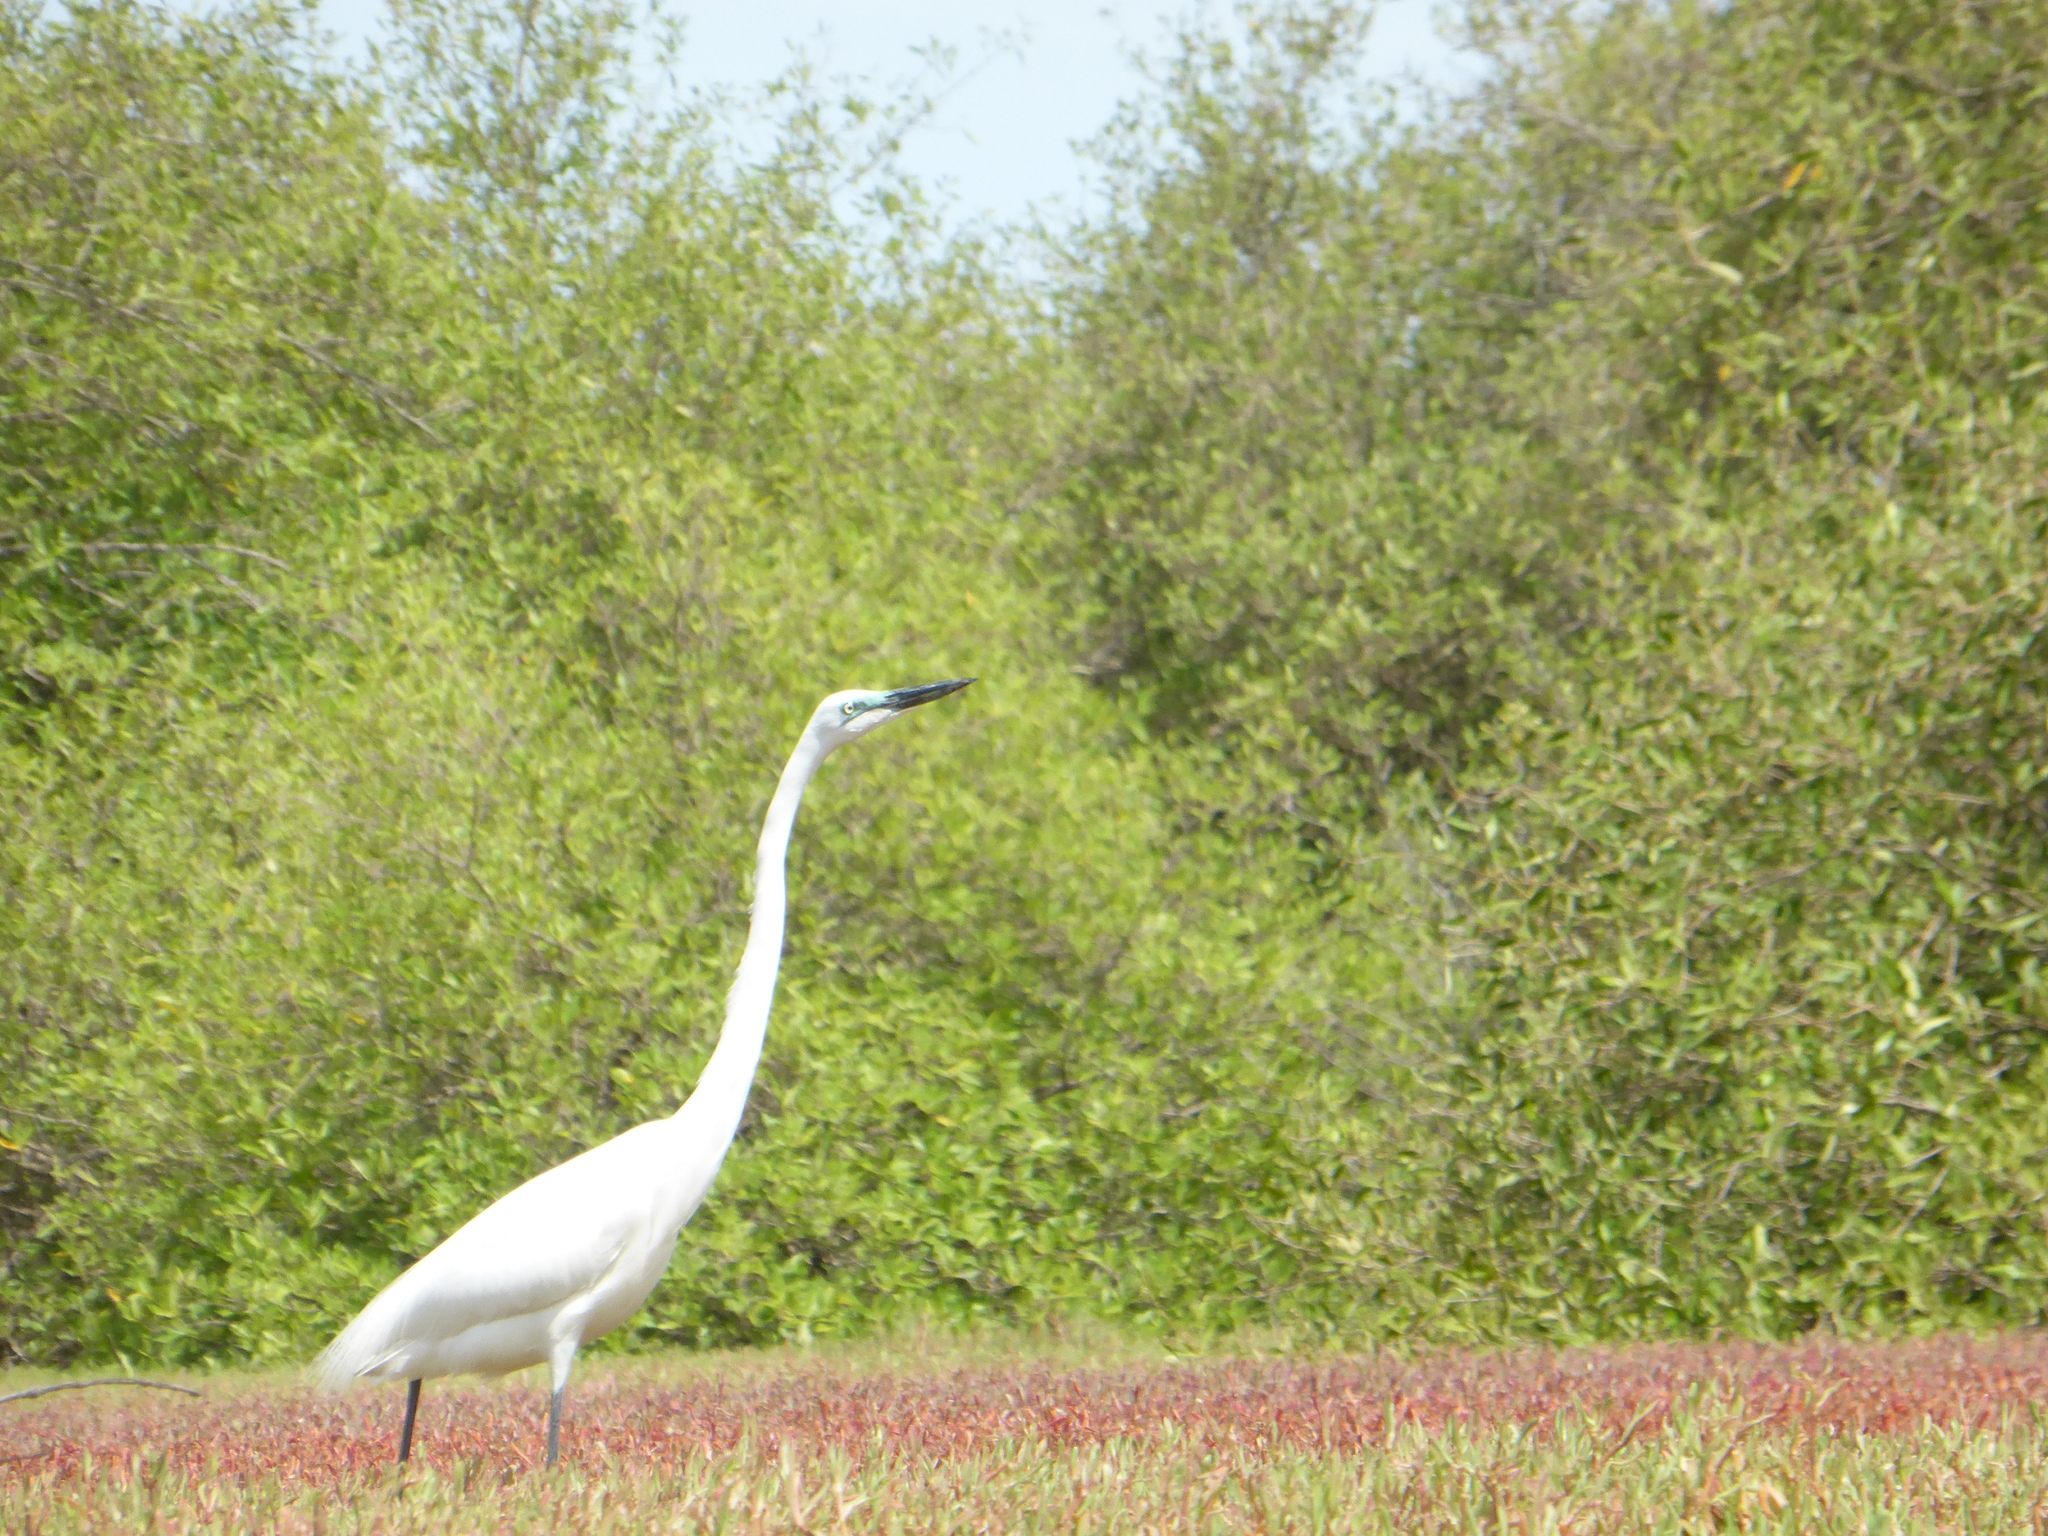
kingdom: Animalia
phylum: Chordata
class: Aves
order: Pelecaniformes
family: Ardeidae
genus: Ardea
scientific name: Ardea alba
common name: Great egret
